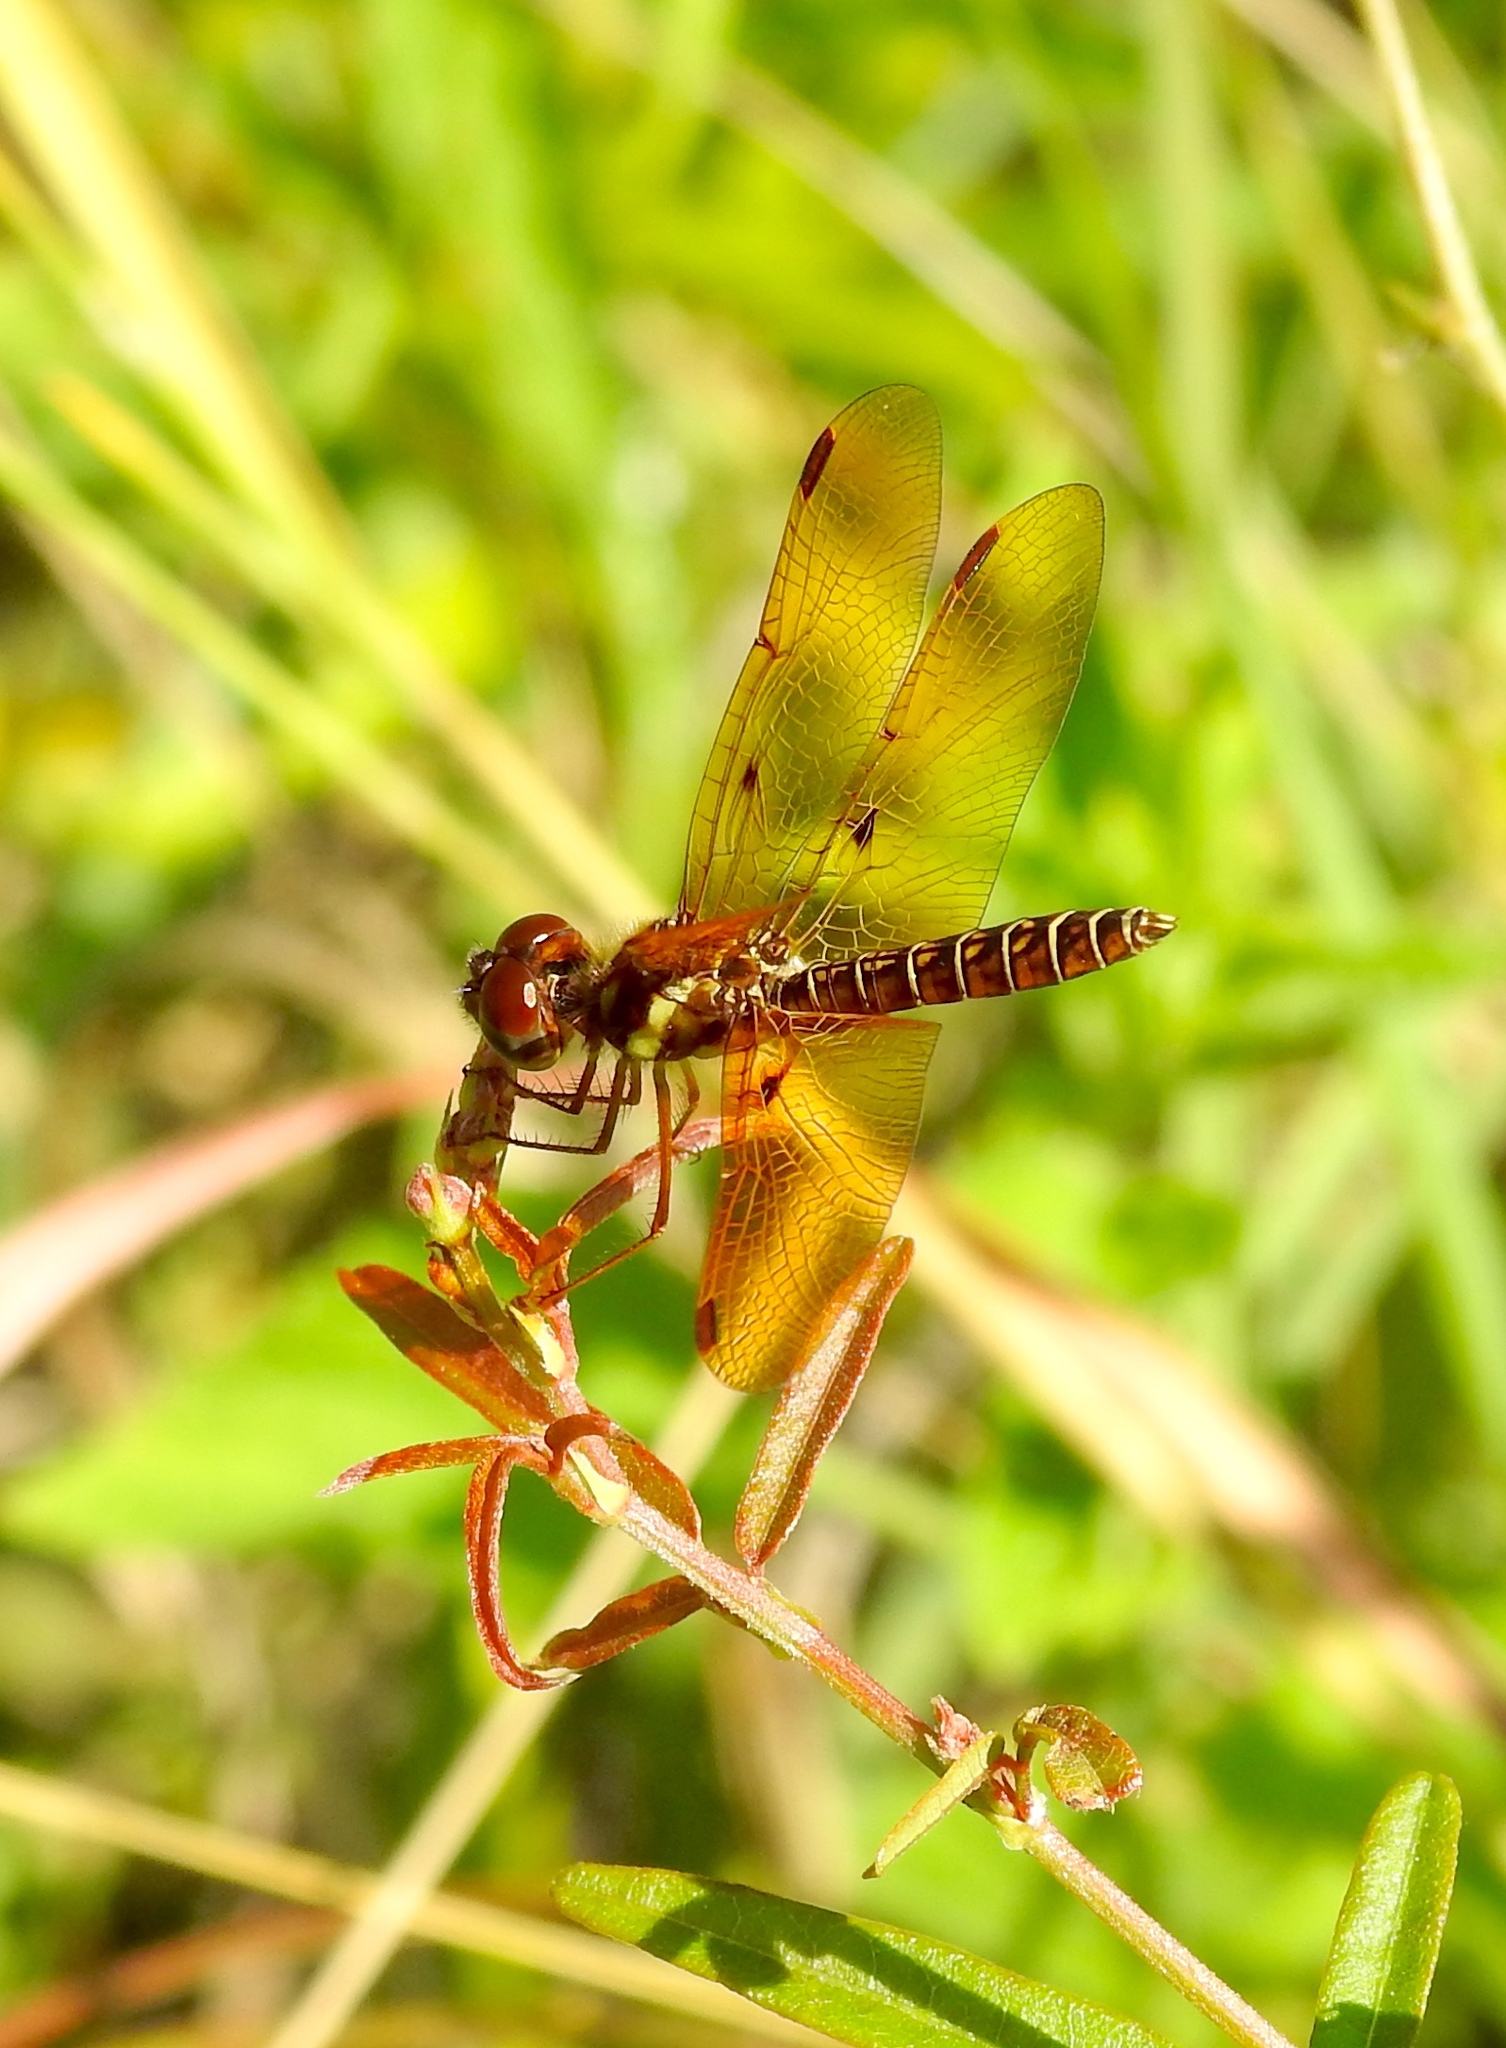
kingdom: Animalia
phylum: Arthropoda
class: Insecta
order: Odonata
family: Libellulidae
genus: Perithemis
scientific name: Perithemis tenera
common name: Eastern amberwing
